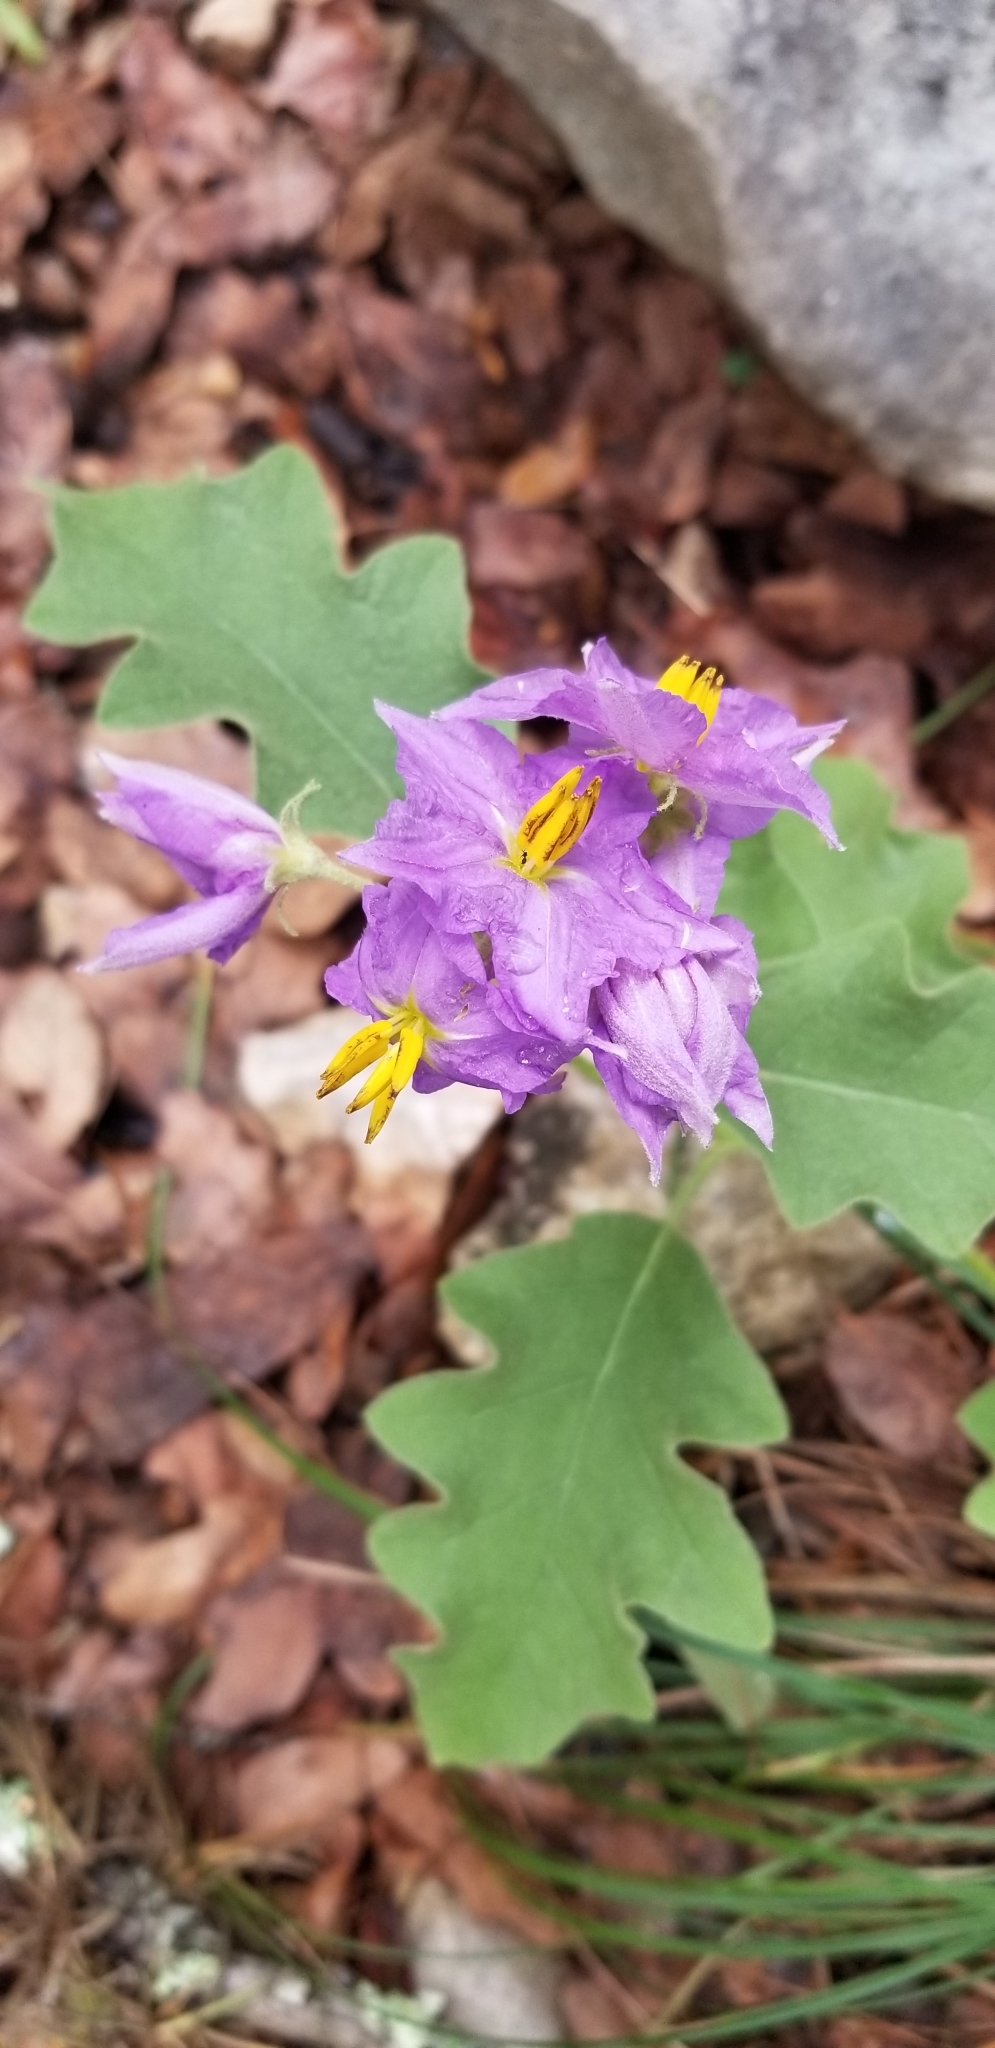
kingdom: Plantae
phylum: Tracheophyta
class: Magnoliopsida
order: Solanales
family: Solanaceae
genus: Solanum
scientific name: Solanum dimidiatum
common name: Carolina horse-nettle
